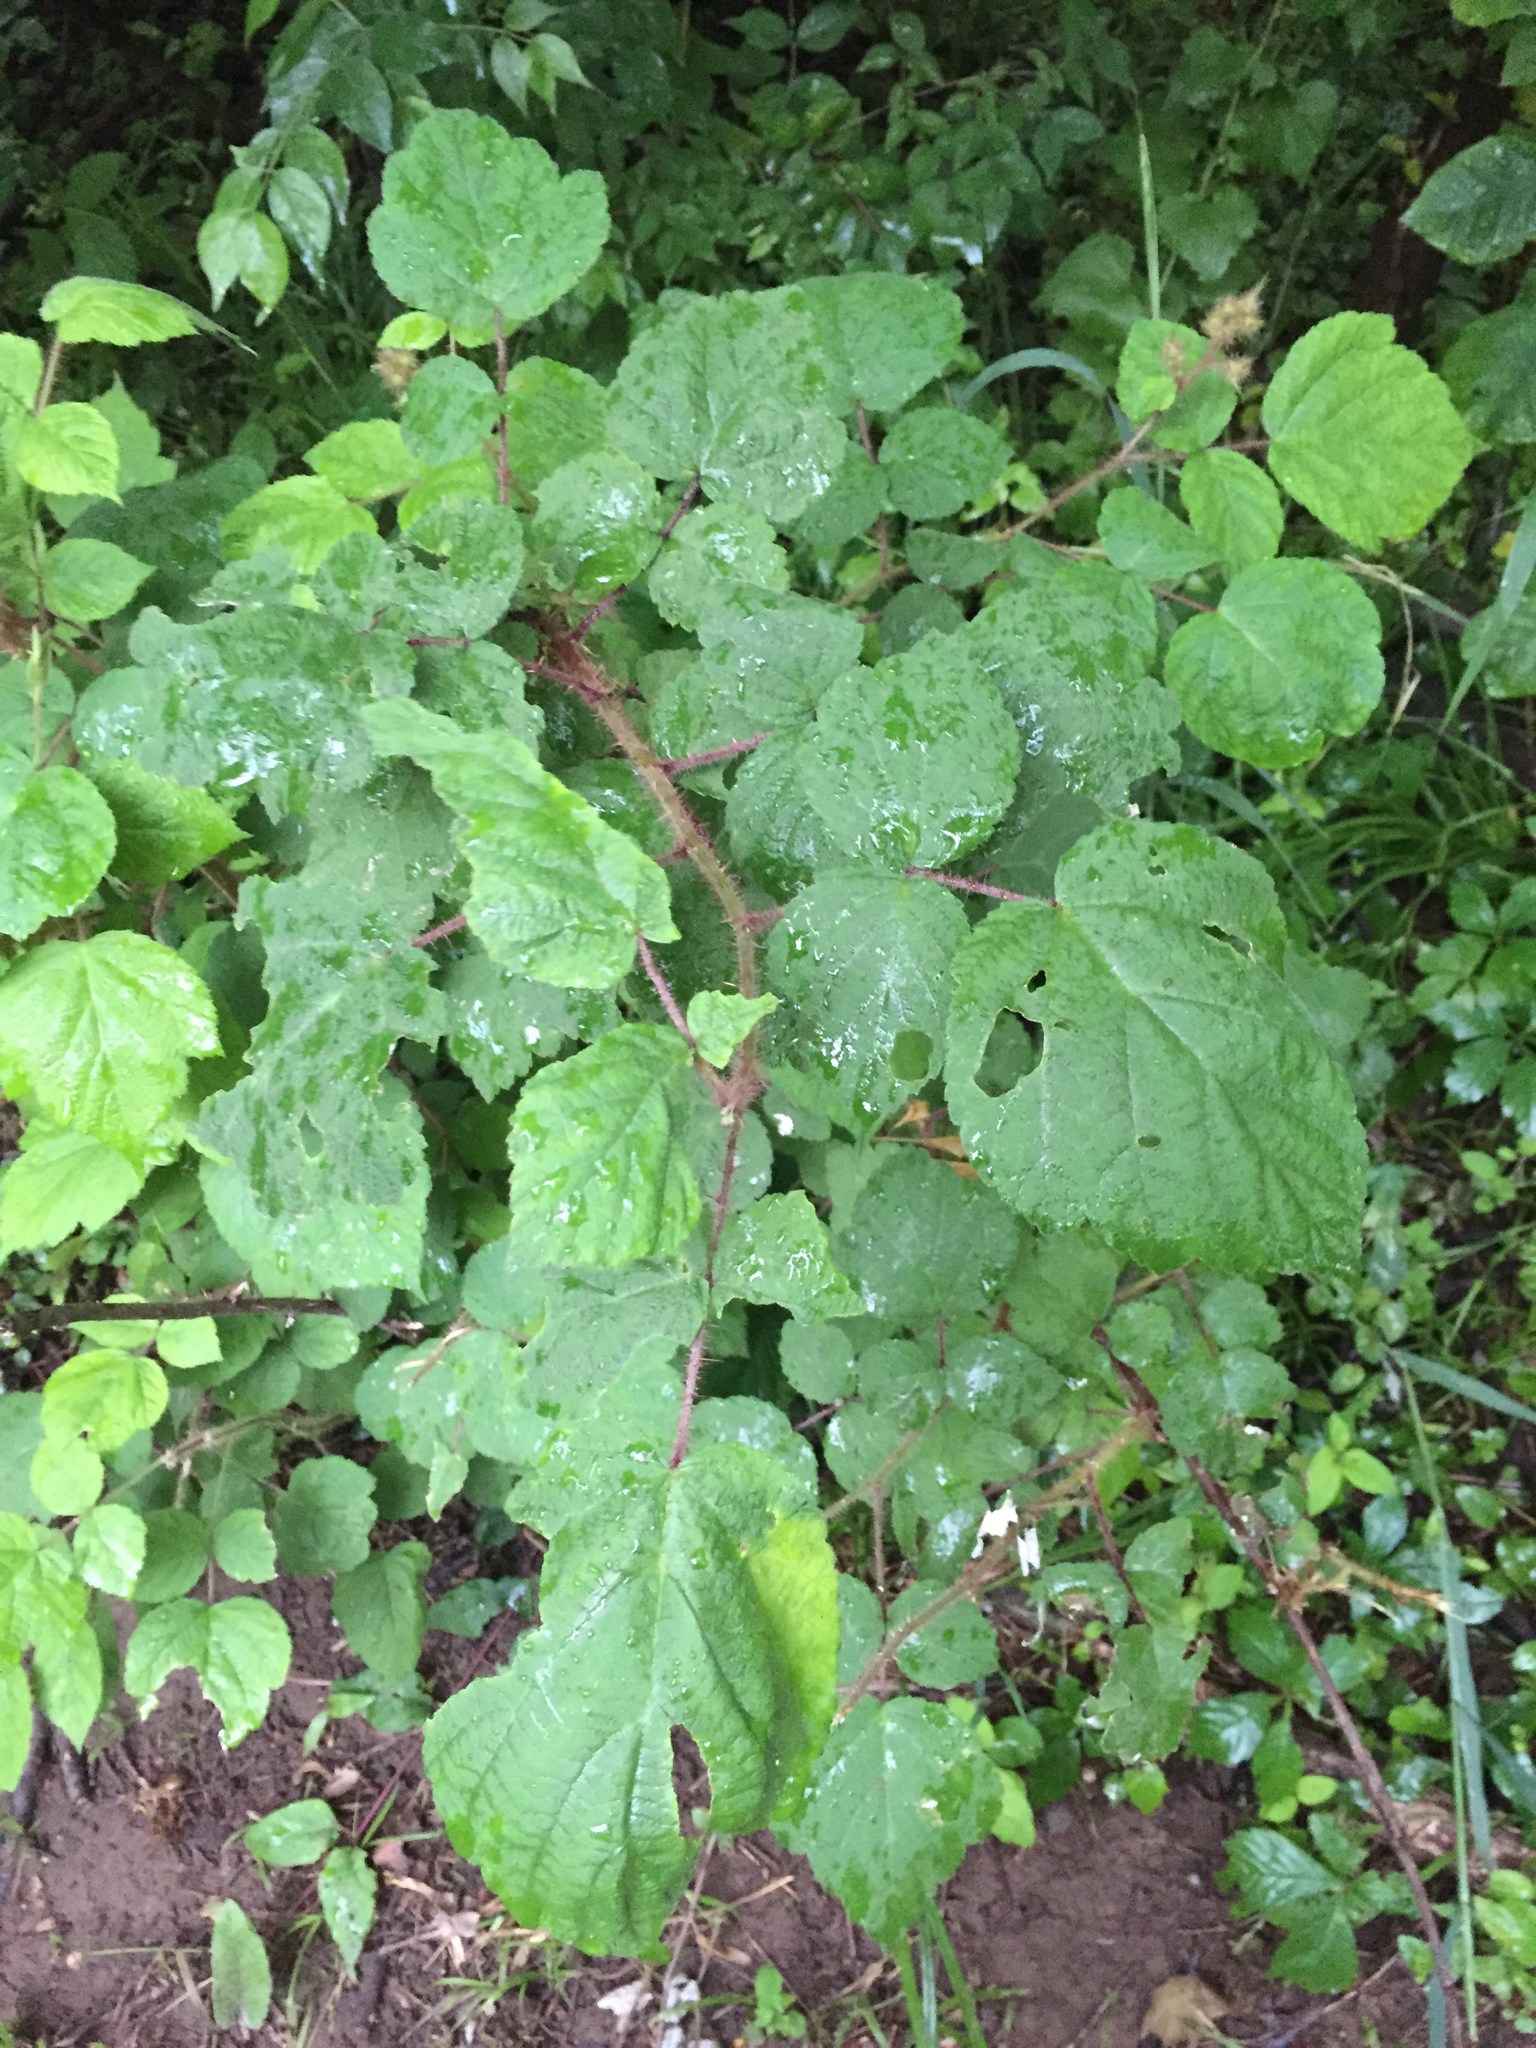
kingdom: Plantae
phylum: Tracheophyta
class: Magnoliopsida
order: Rosales
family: Rosaceae
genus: Rubus
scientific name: Rubus phoenicolasius
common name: Japanese wineberry
